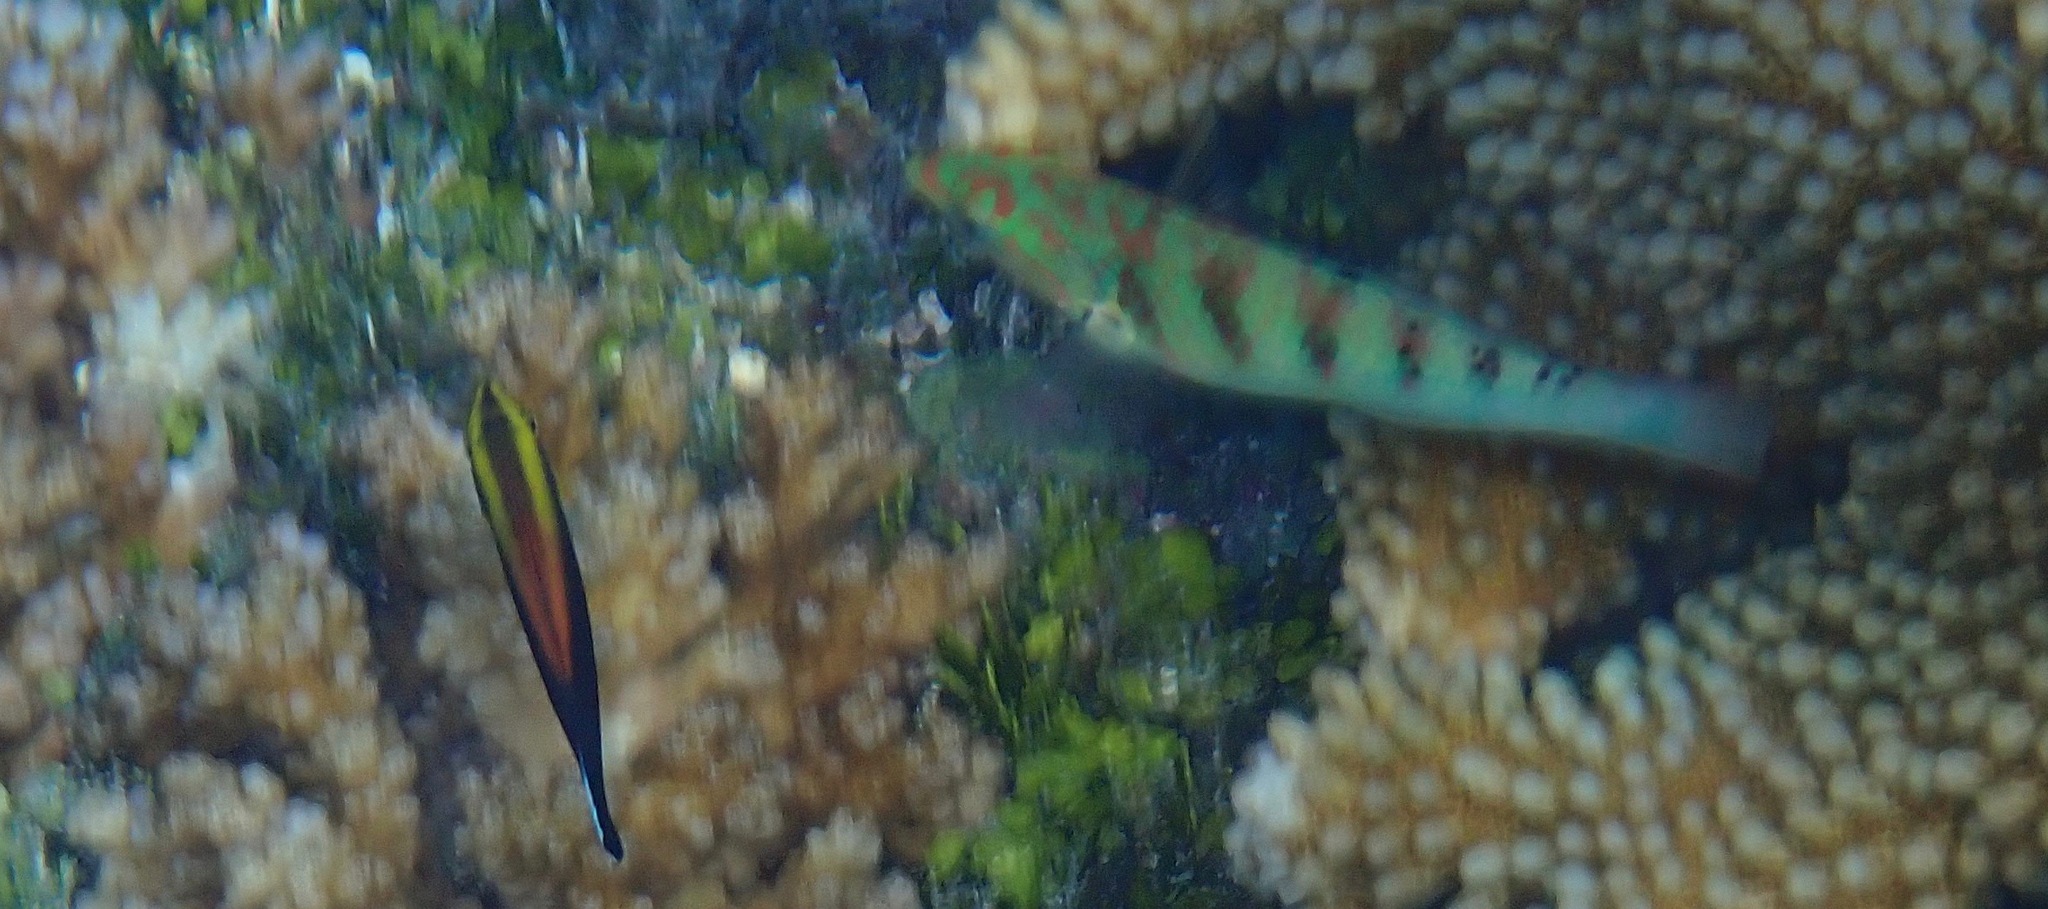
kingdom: Animalia
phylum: Chordata
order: Perciformes
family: Labridae
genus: Thalassoma
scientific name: Thalassoma hardwicke
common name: Sixbar wrasse
